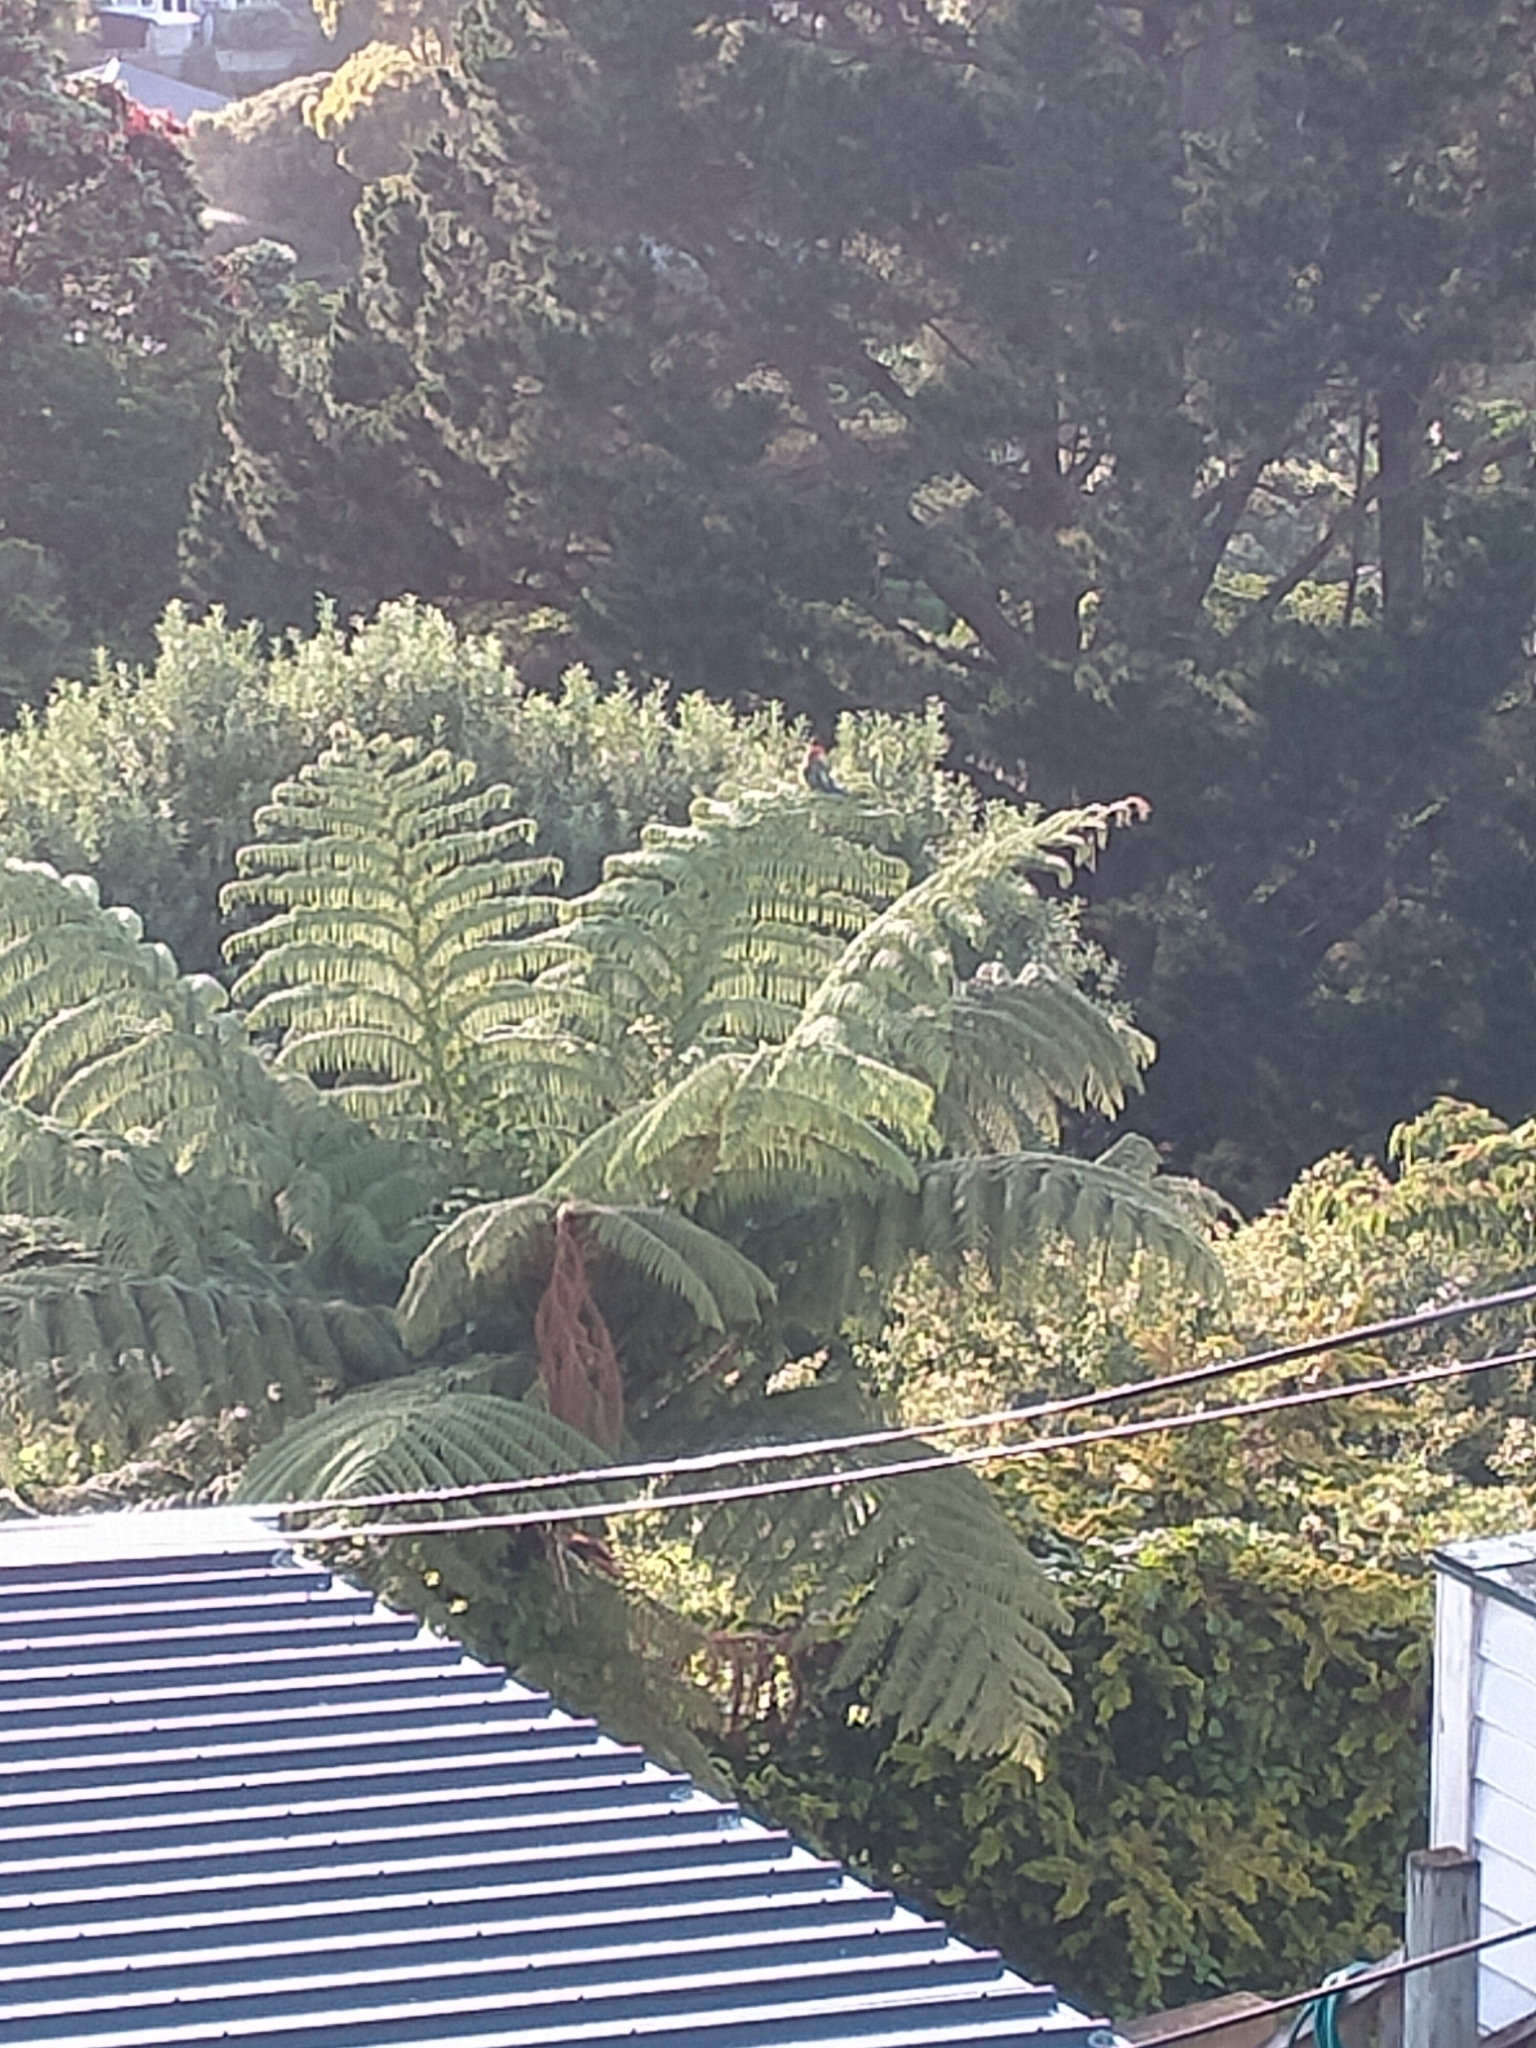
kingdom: Animalia
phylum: Chordata
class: Aves
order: Psittaciformes
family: Psittacidae
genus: Platycercus
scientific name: Platycercus eximius
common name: Eastern rosella
